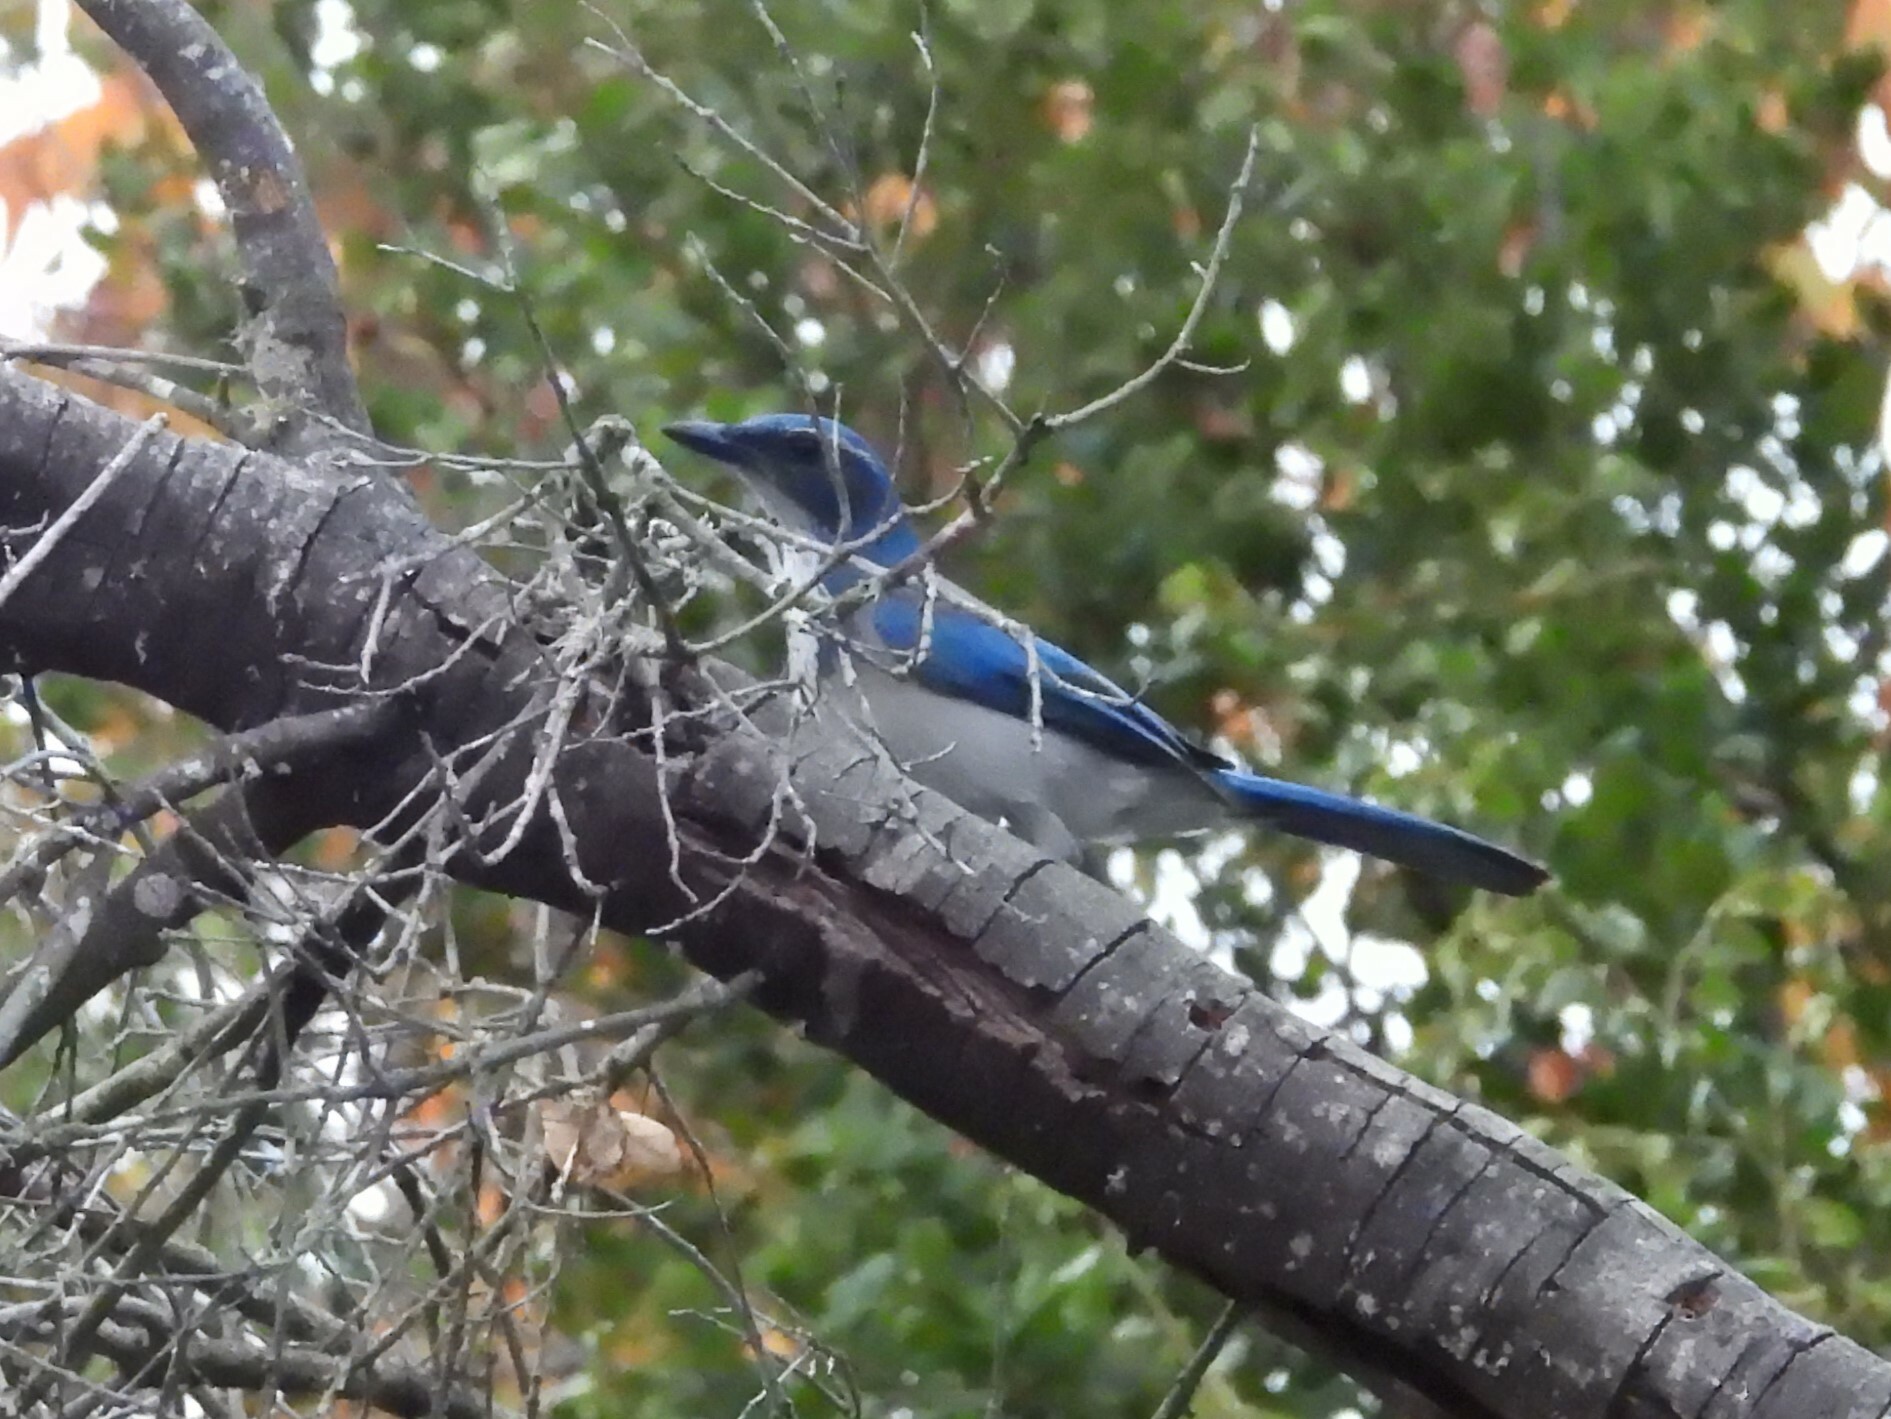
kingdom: Animalia
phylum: Chordata
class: Aves
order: Passeriformes
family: Corvidae
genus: Aphelocoma
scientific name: Aphelocoma californica
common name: California scrub-jay
